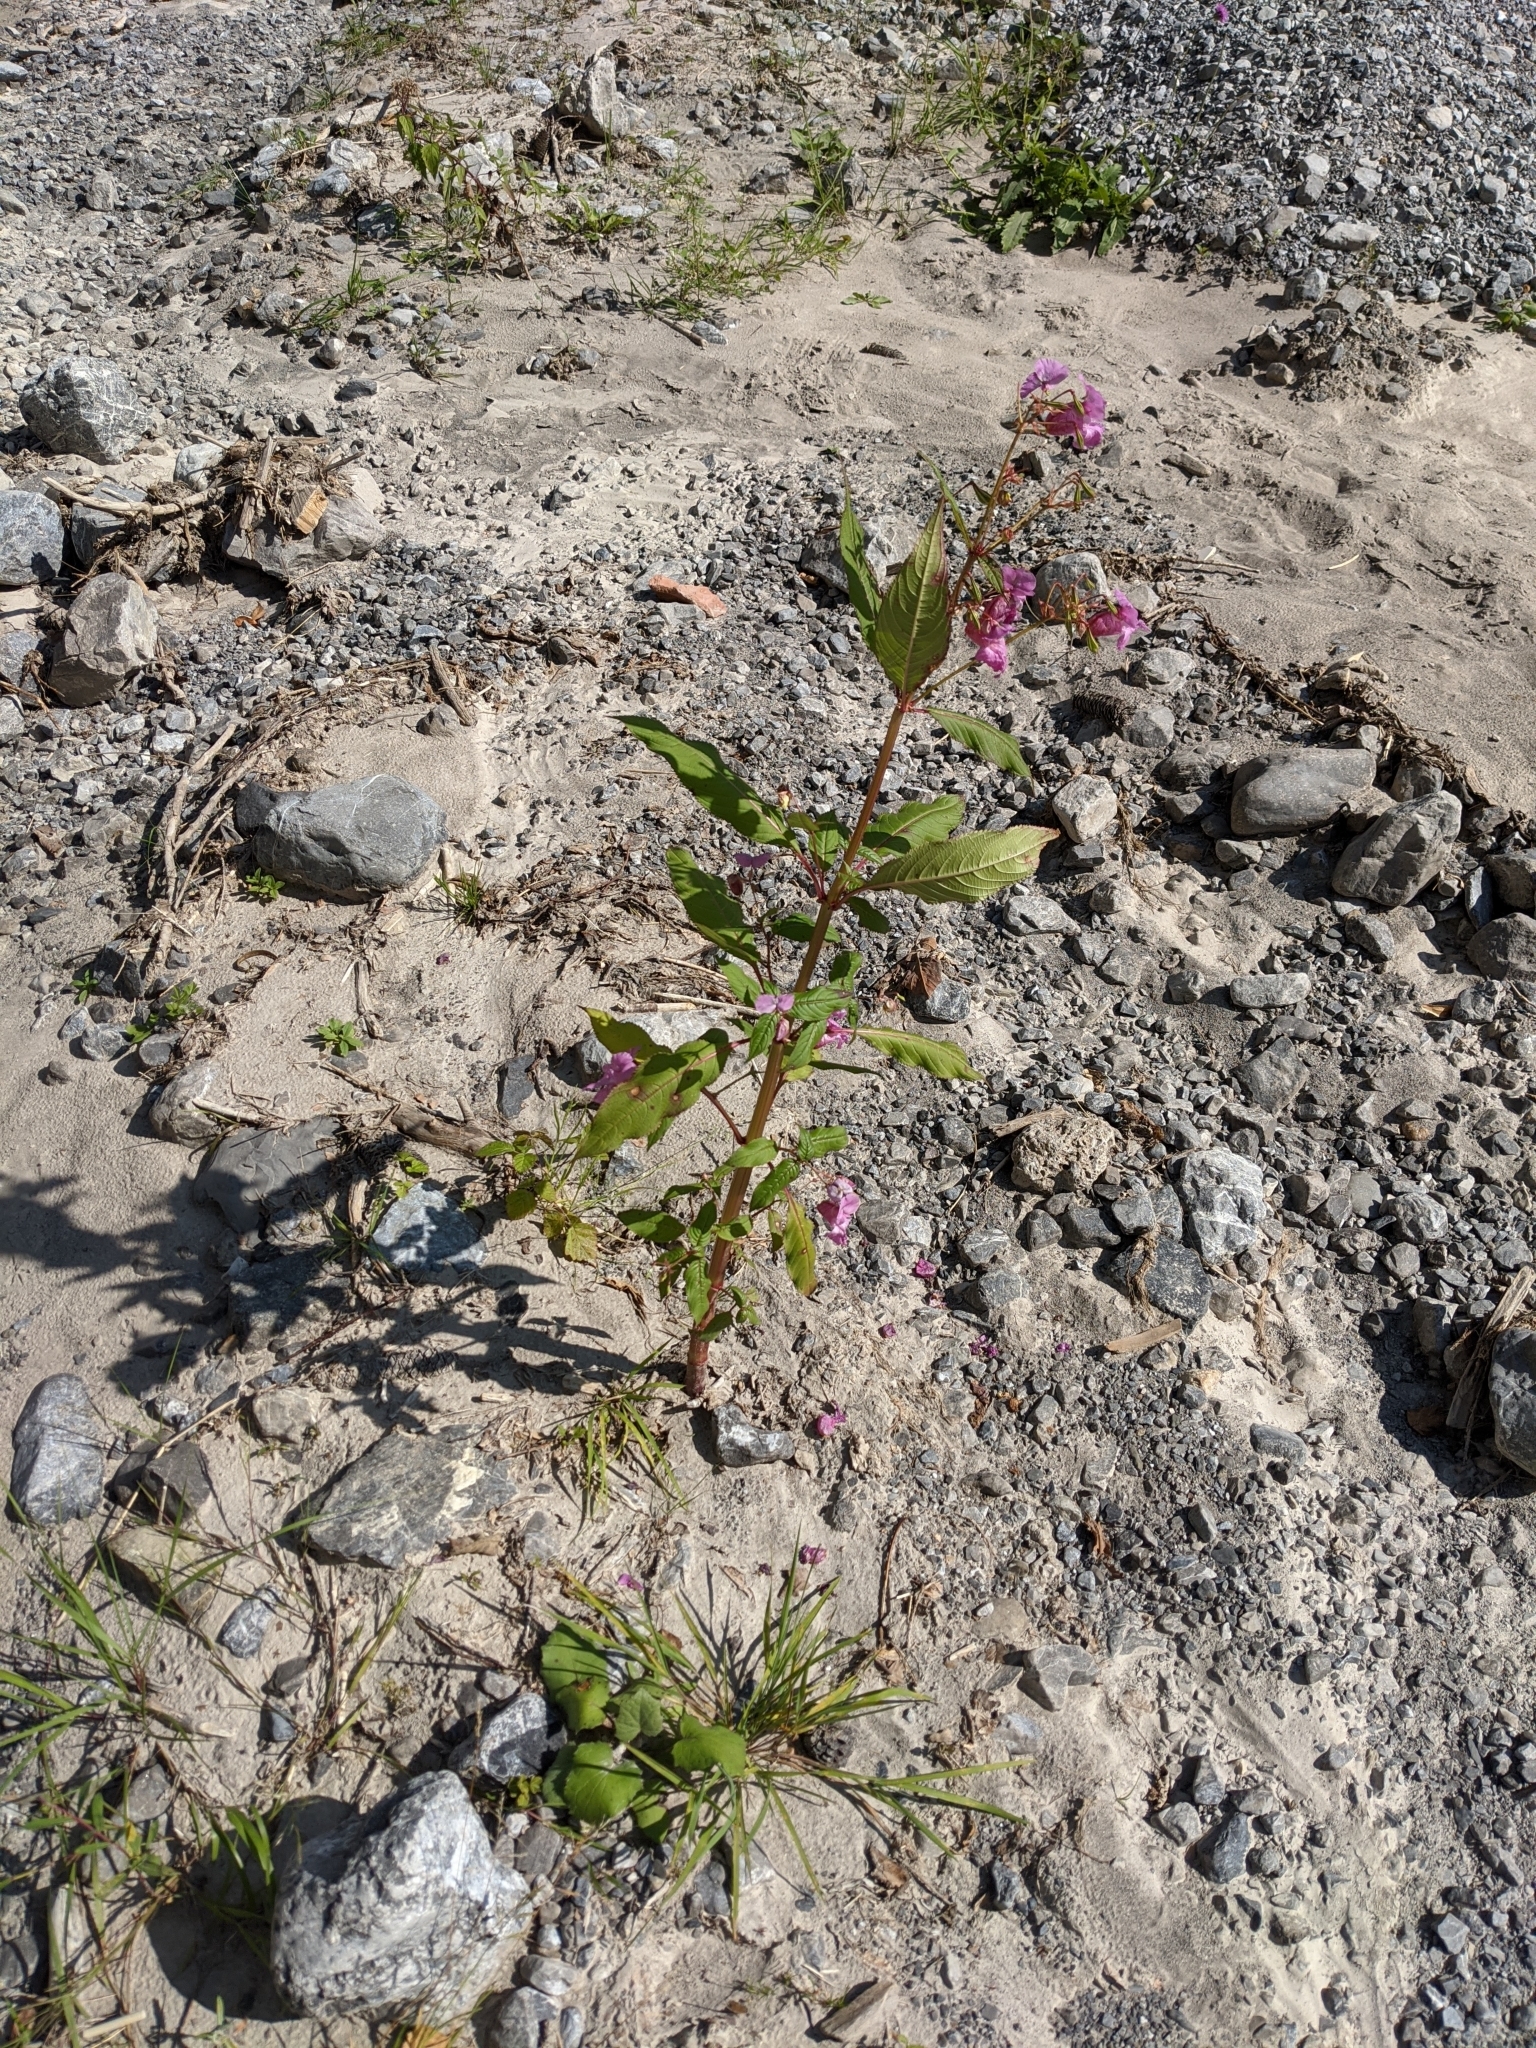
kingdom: Plantae
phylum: Tracheophyta
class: Magnoliopsida
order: Ericales
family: Balsaminaceae
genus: Impatiens
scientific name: Impatiens glandulifera
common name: Himalayan balsam
